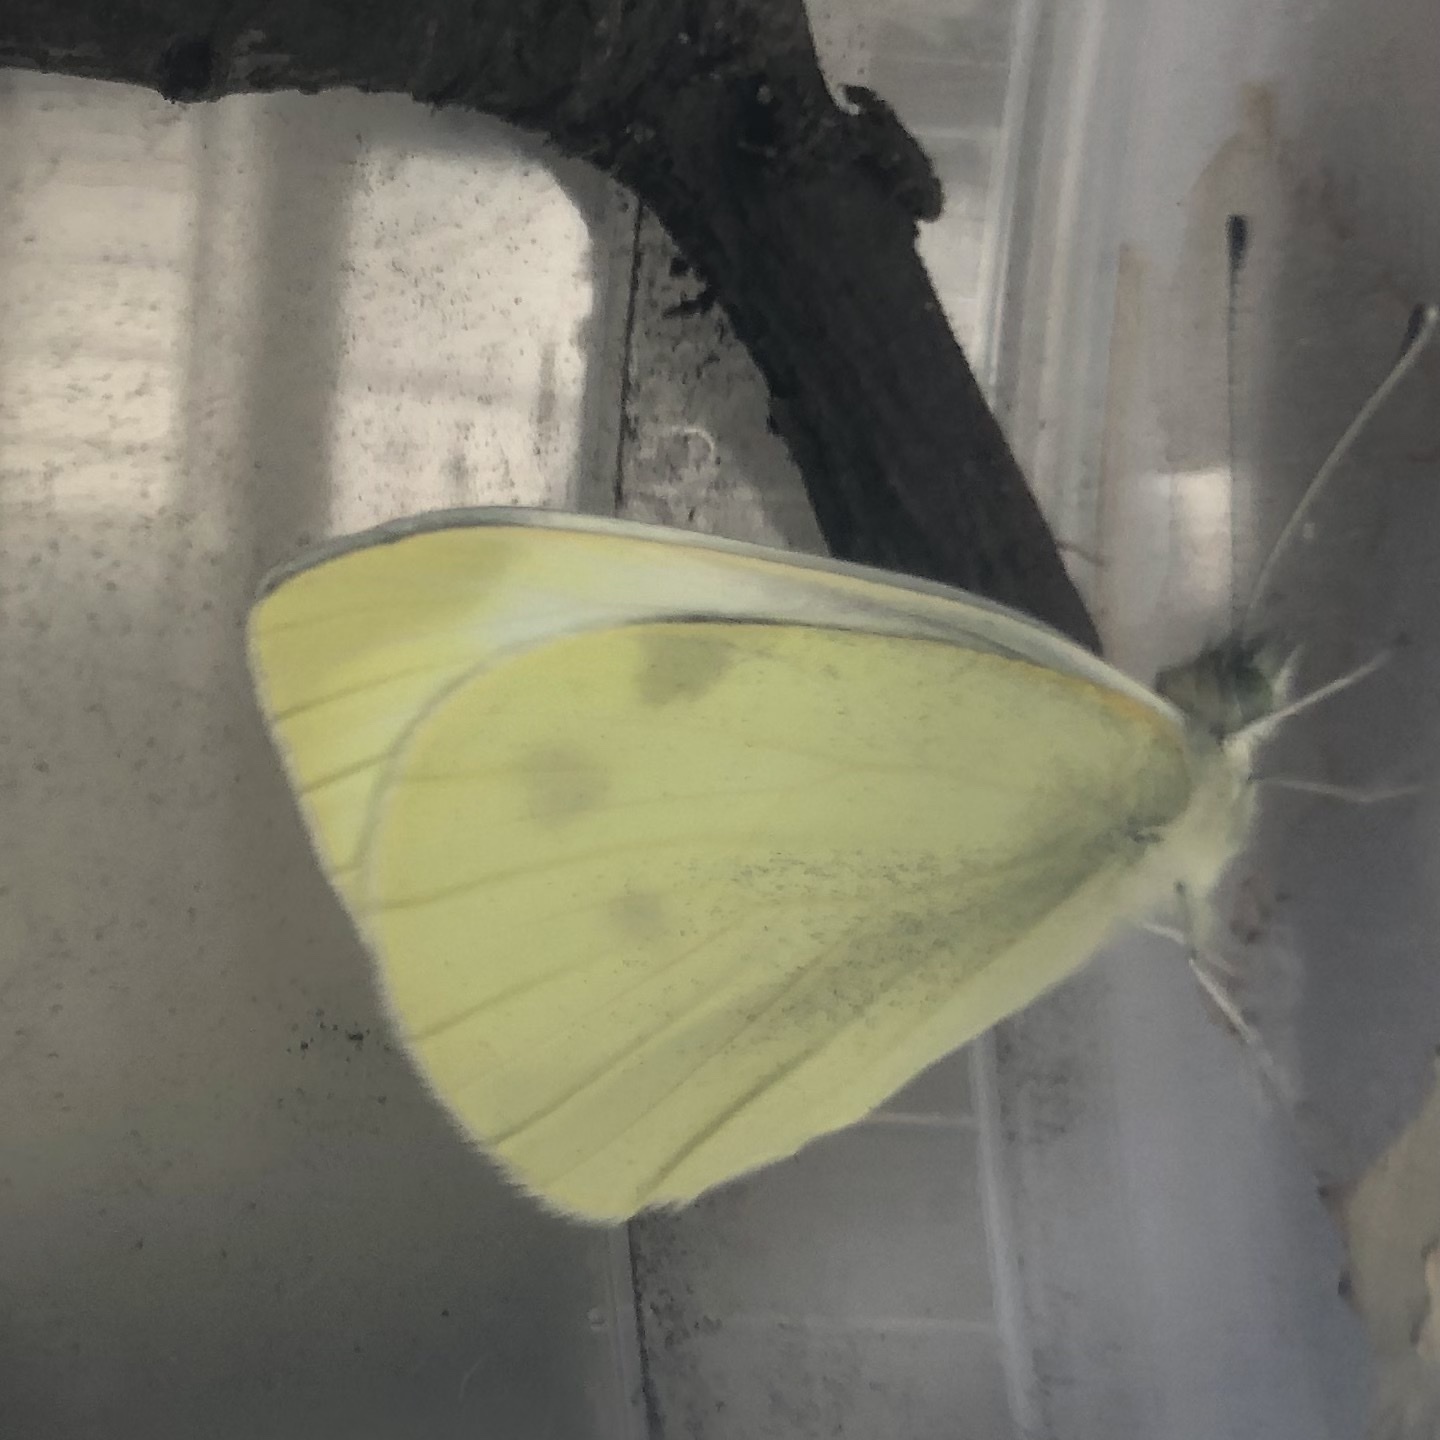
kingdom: Animalia
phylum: Arthropoda
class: Insecta
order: Lepidoptera
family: Pieridae
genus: Pieris
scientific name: Pieris rapae
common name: Small white
